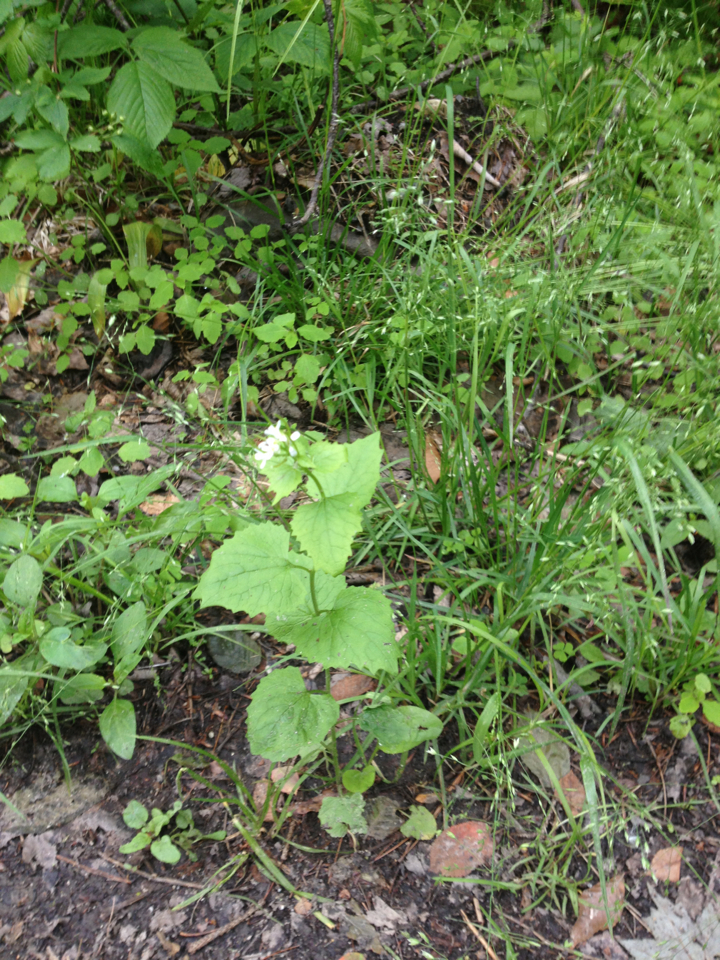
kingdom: Plantae
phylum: Tracheophyta
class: Magnoliopsida
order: Brassicales
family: Brassicaceae
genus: Alliaria
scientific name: Alliaria petiolata
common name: Garlic mustard
